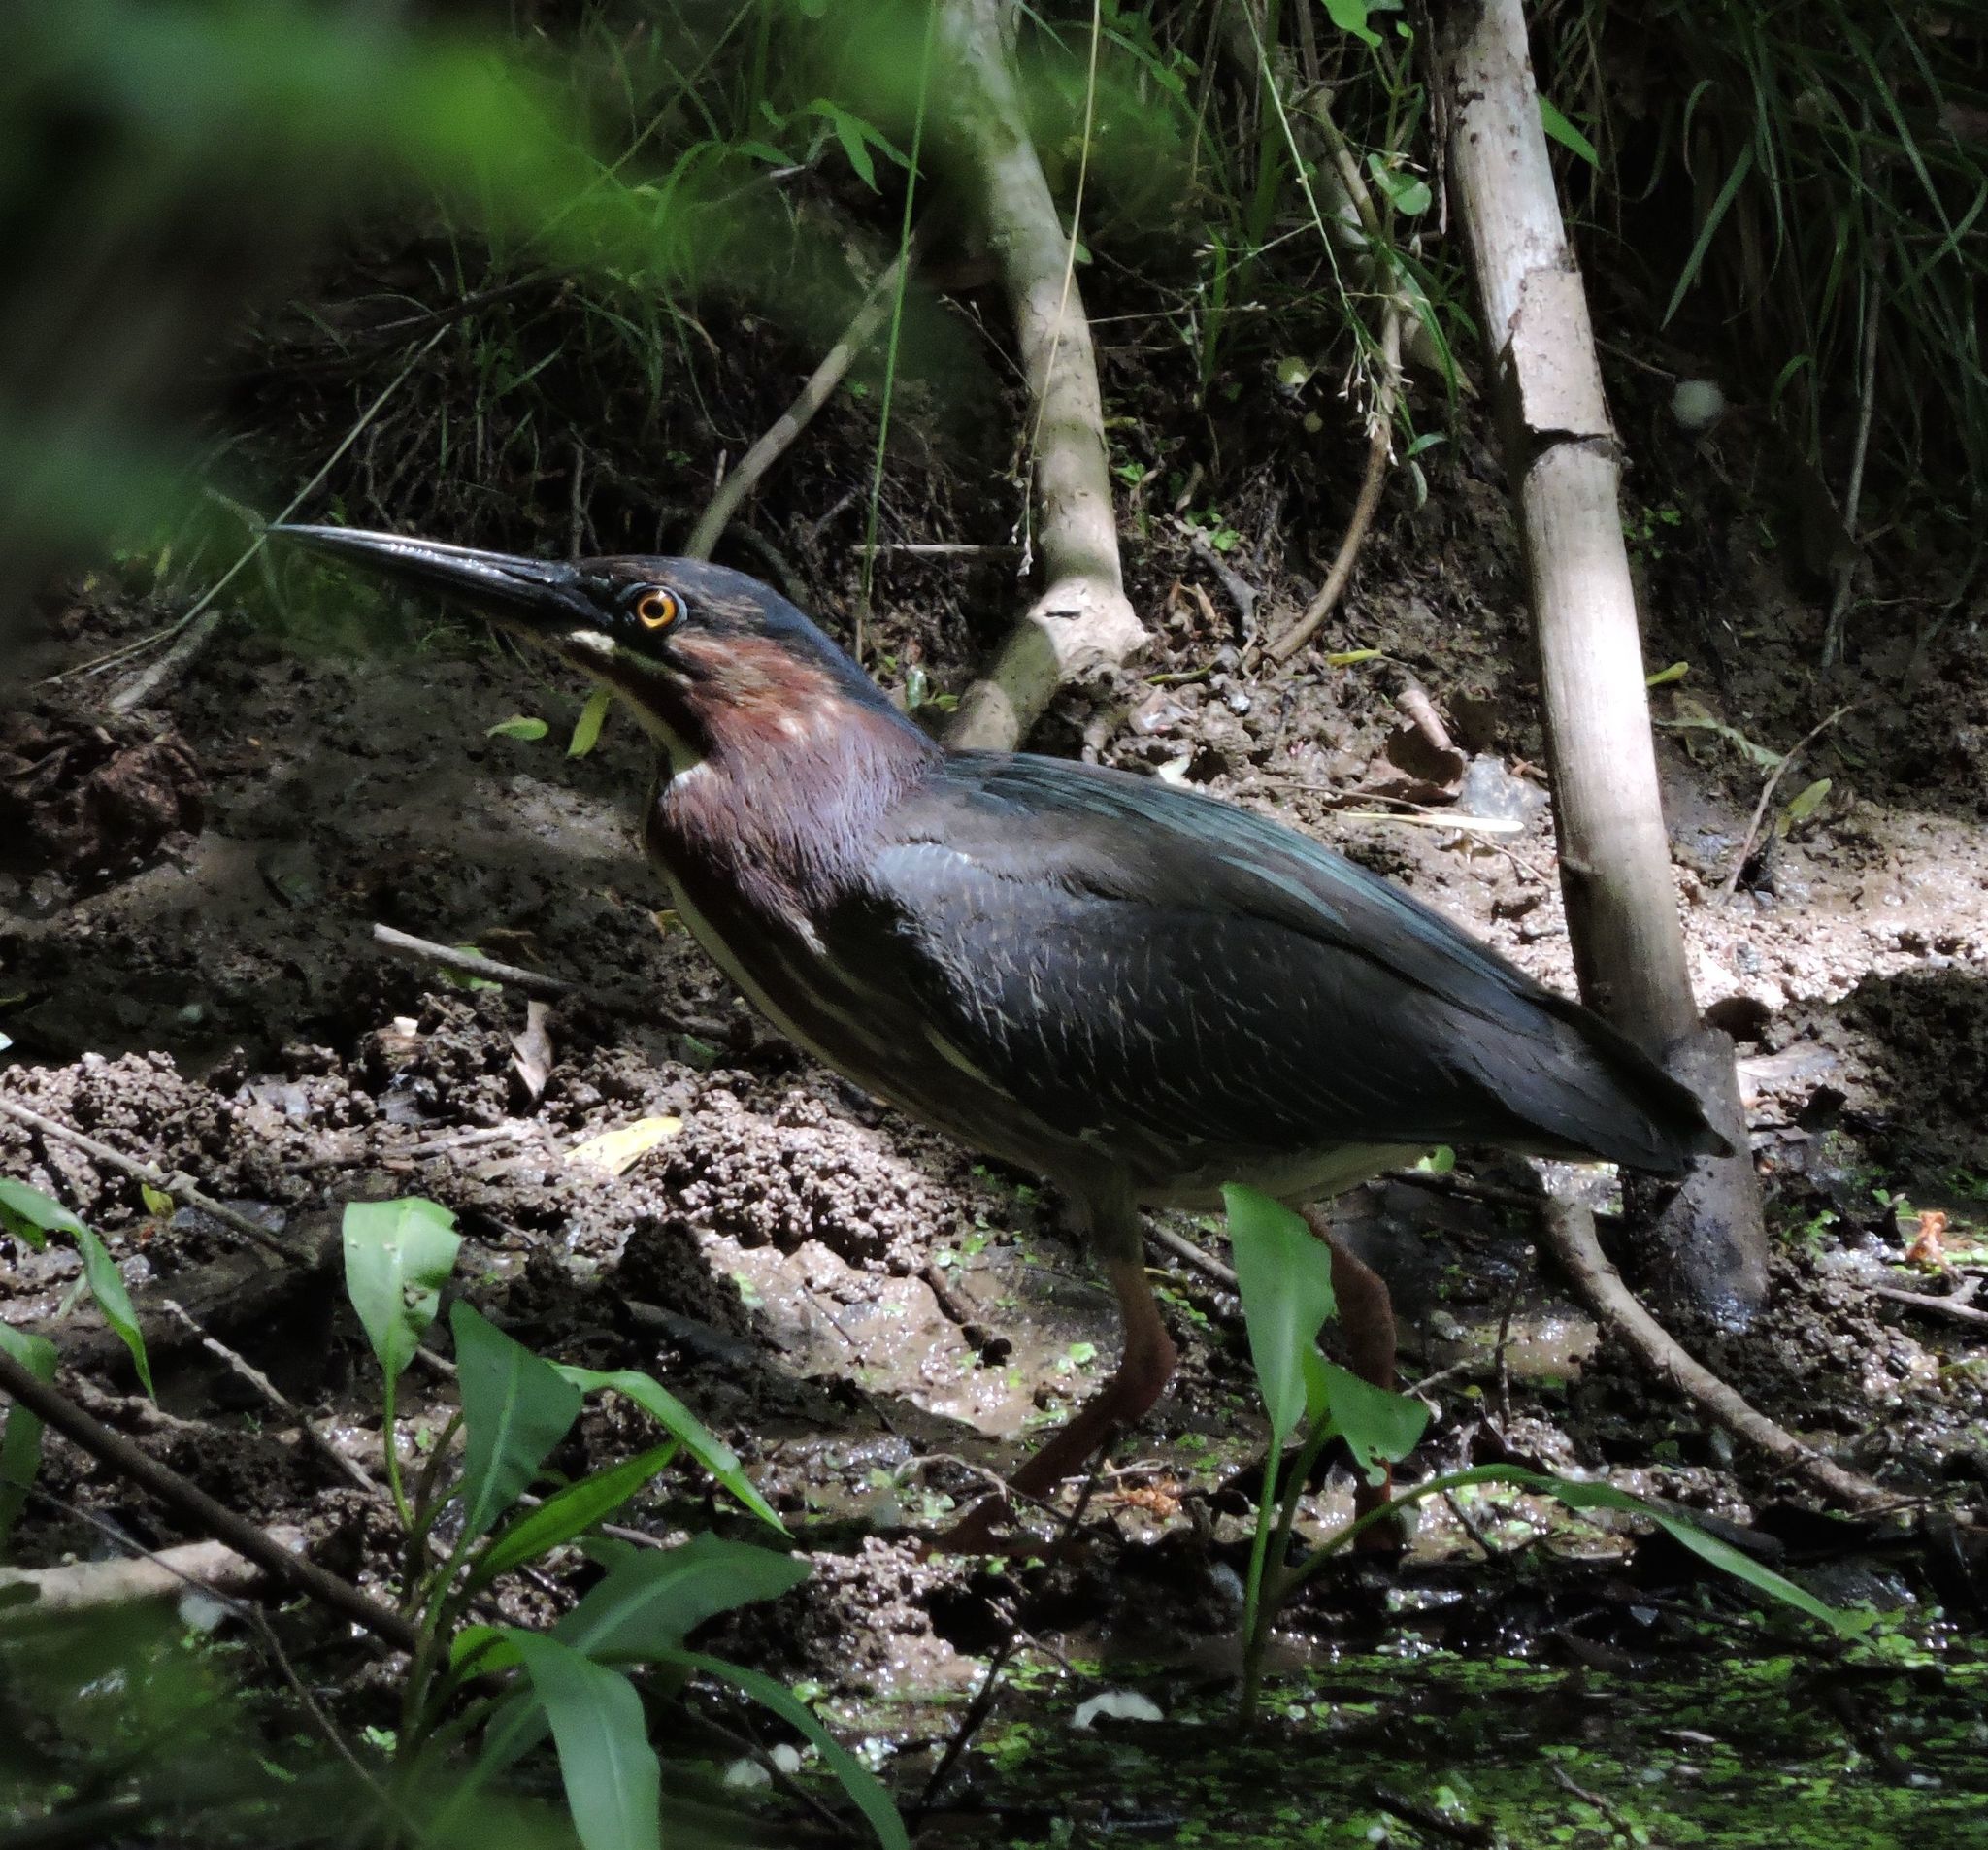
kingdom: Animalia
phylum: Chordata
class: Aves
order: Pelecaniformes
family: Ardeidae
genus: Butorides
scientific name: Butorides virescens
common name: Green heron
